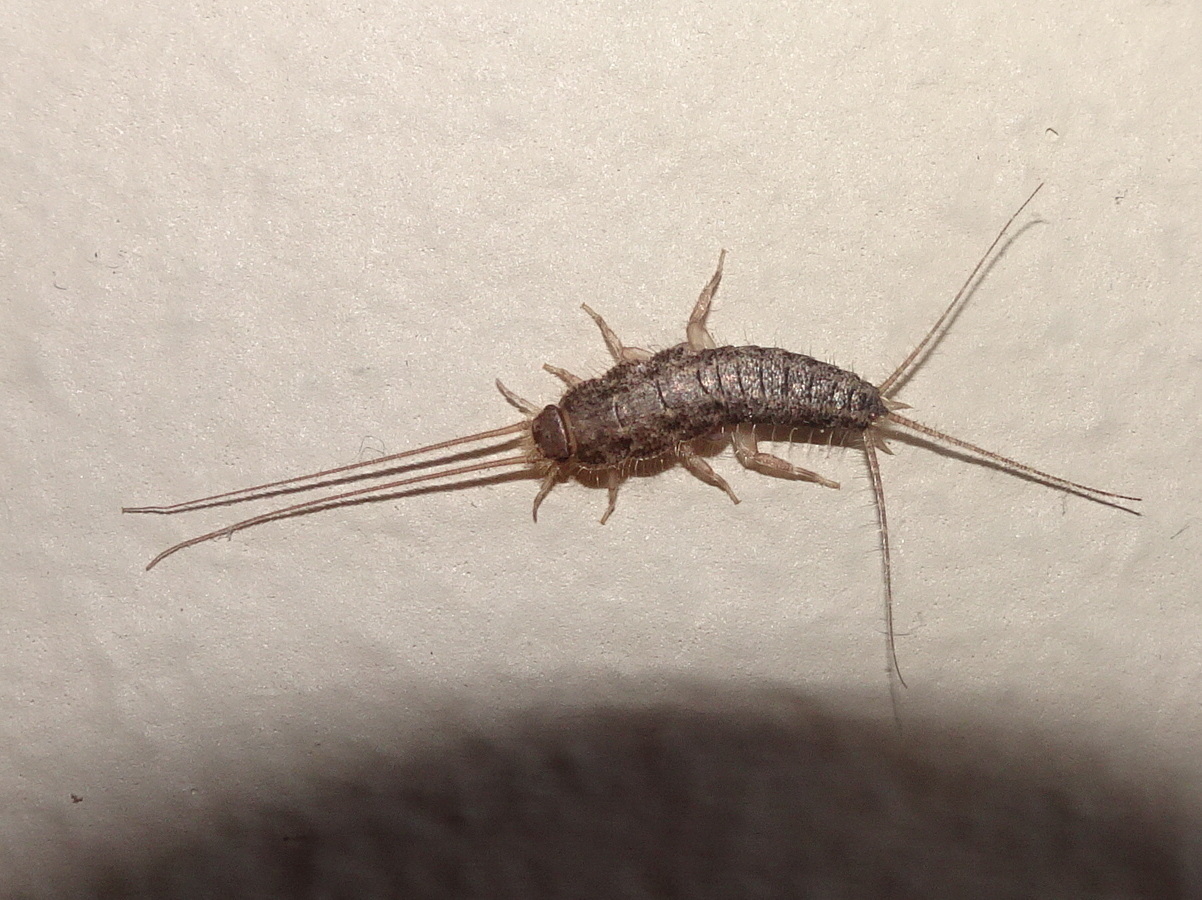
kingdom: Animalia
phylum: Arthropoda
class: Insecta
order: Zygentoma
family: Lepismatidae
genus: Ctenolepisma
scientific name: Ctenolepisma lineata
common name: Four-lined silverfish
